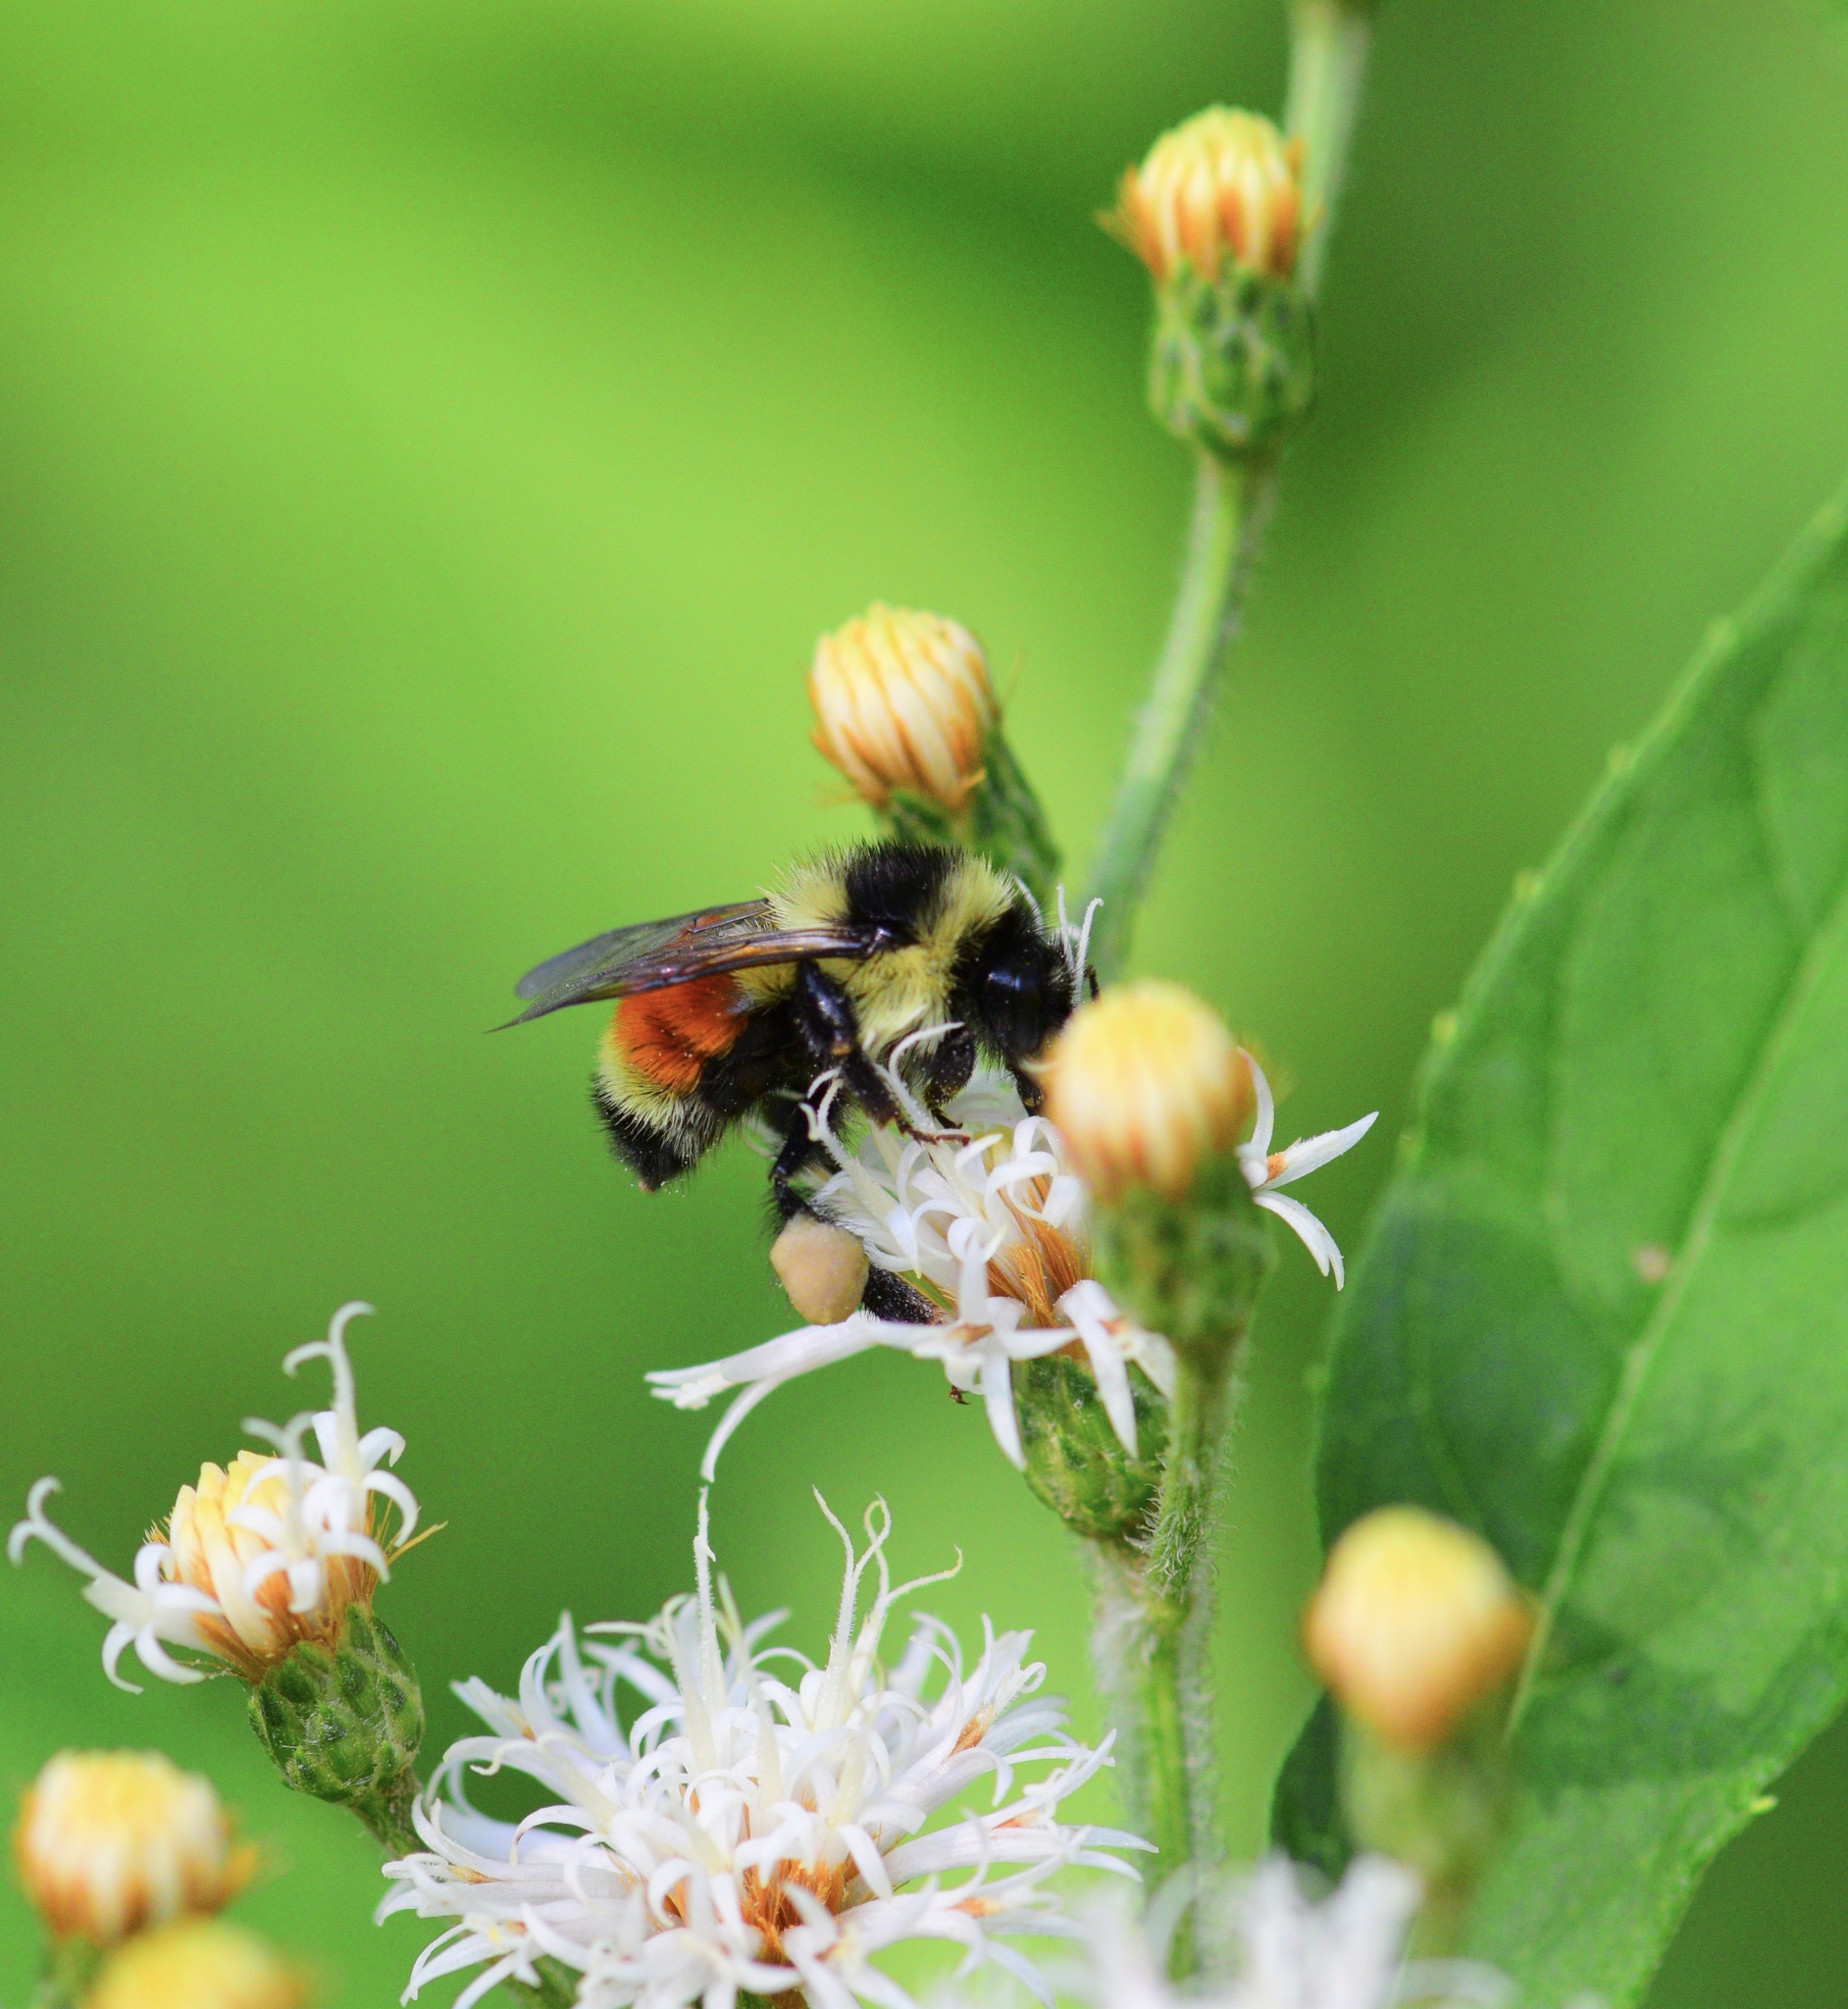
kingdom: Animalia
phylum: Arthropoda
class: Insecta
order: Hymenoptera
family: Apidae
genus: Bombus
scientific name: Bombus ternarius
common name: Tri-colored bumble bee
